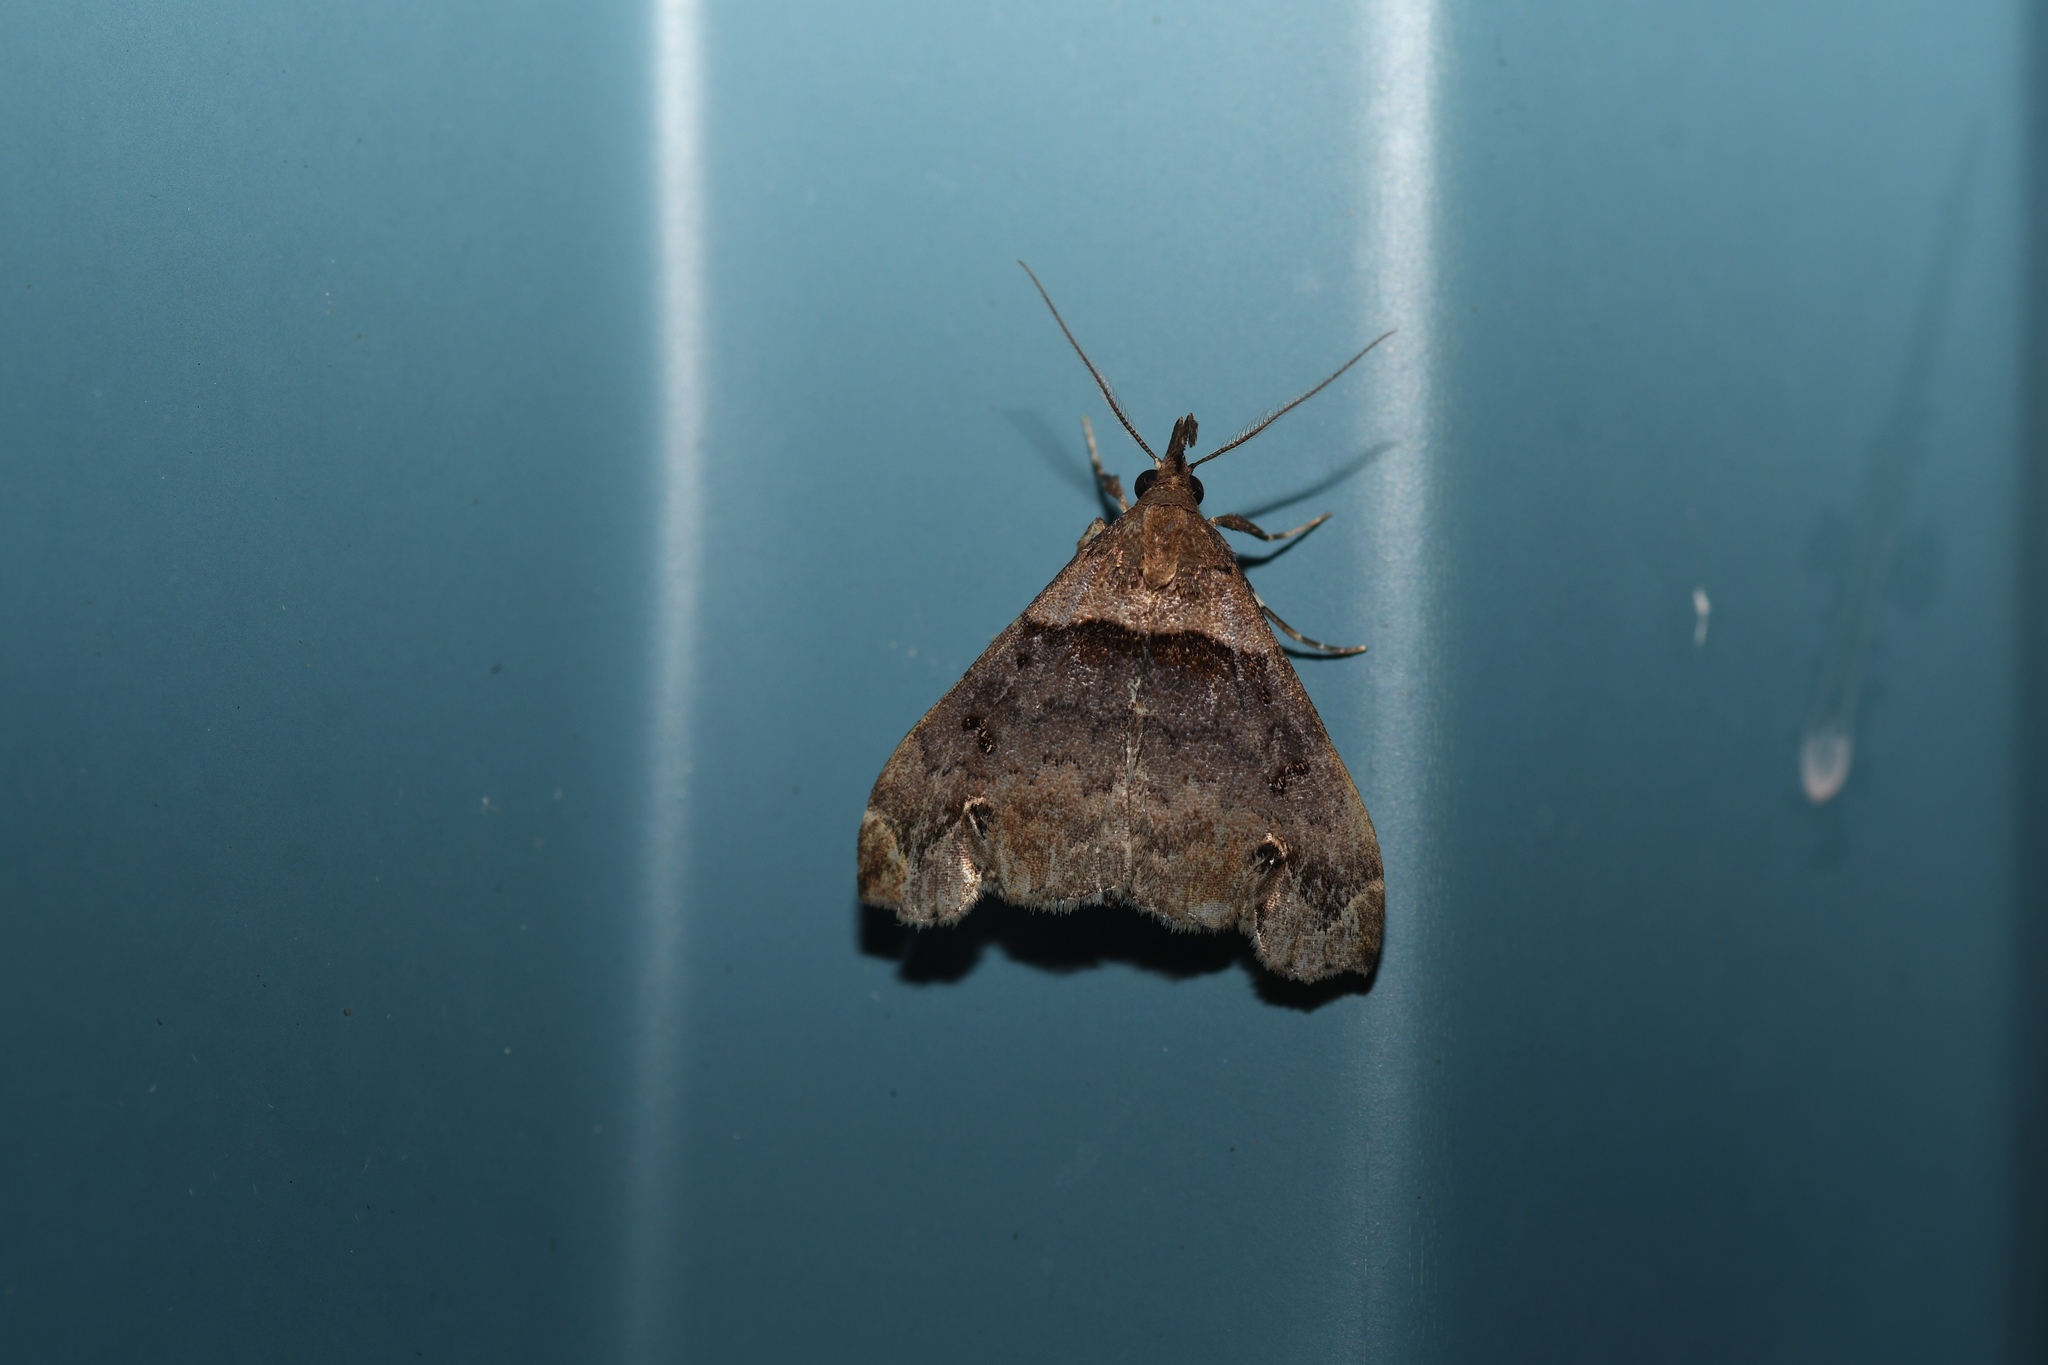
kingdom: Animalia
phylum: Arthropoda
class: Insecta
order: Lepidoptera
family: Erebidae
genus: Lascoria
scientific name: Lascoria ambigualis
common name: Ambiguous moth
